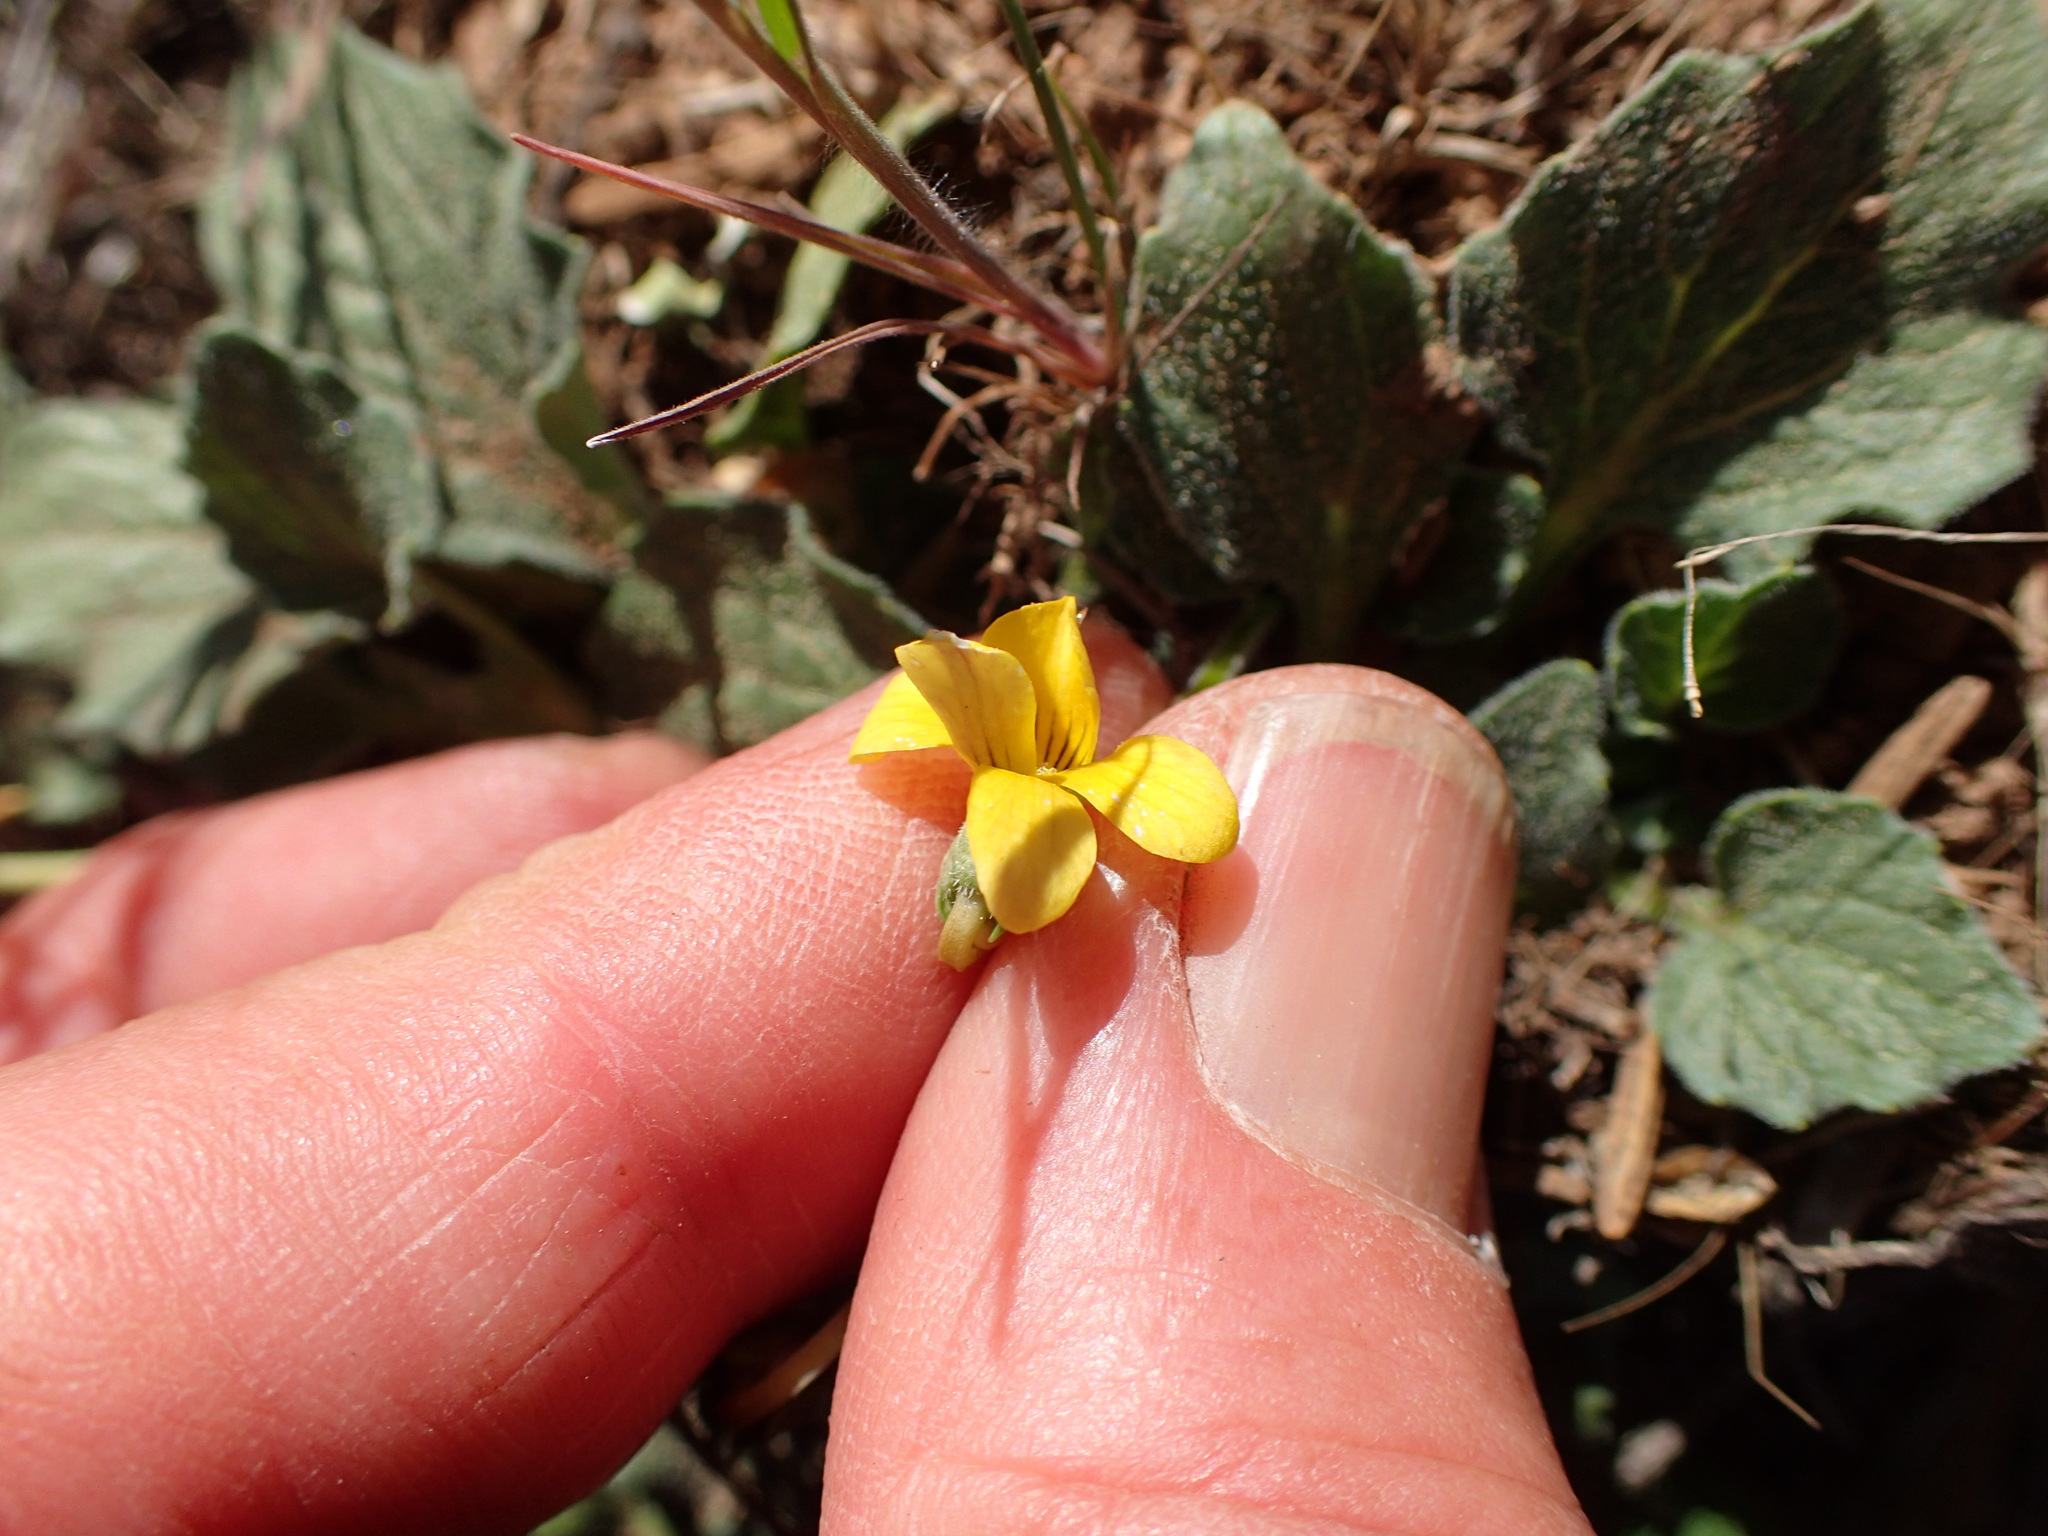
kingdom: Plantae
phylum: Tracheophyta
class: Magnoliopsida
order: Malpighiales
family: Violaceae
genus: Viola
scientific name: Viola purpurea
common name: Pine violet
